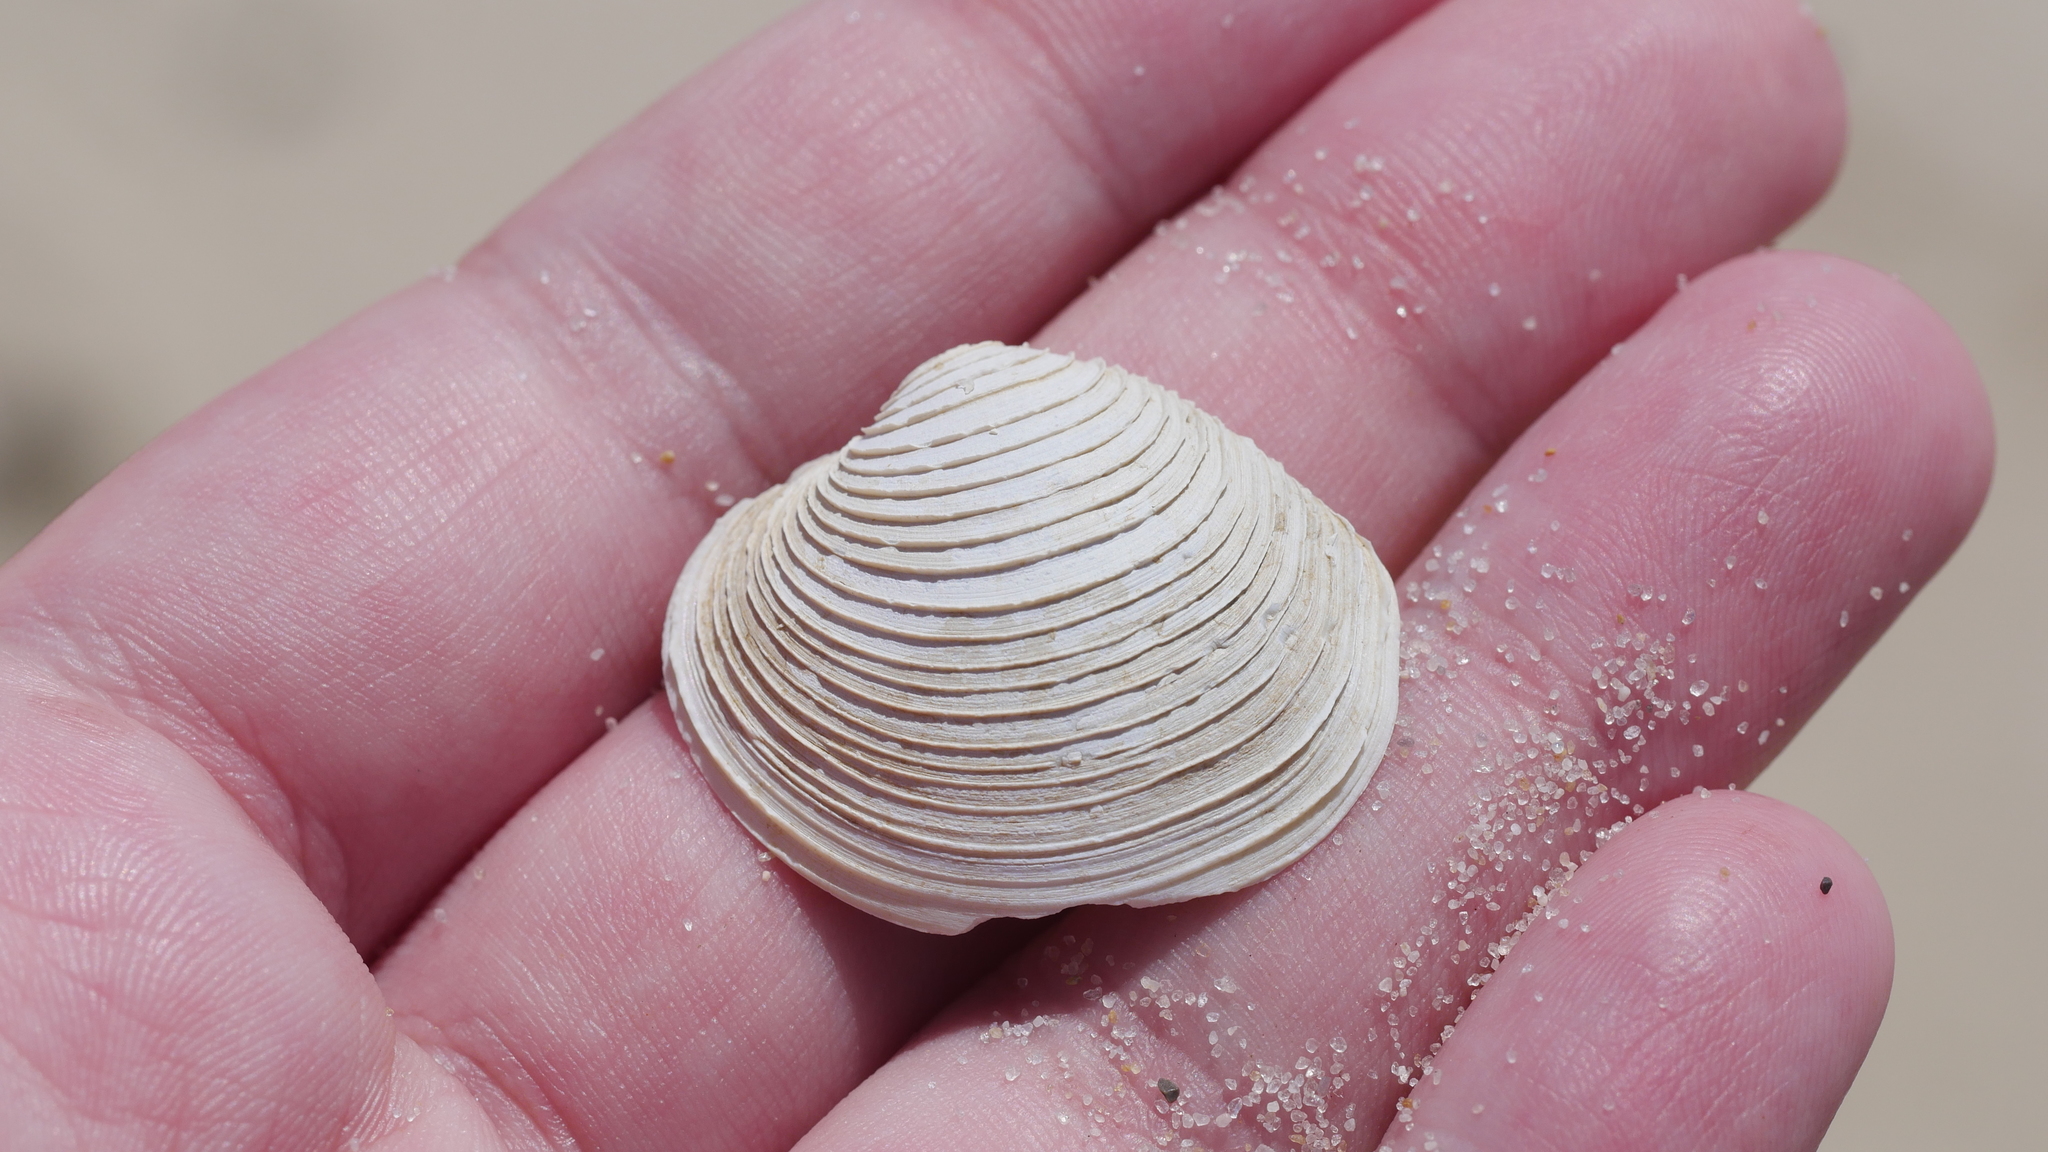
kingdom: Animalia
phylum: Mollusca
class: Bivalvia
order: Venerida
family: Veneridae
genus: Mercenaria
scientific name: Mercenaria mercenaria
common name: American hard-shelled clam
